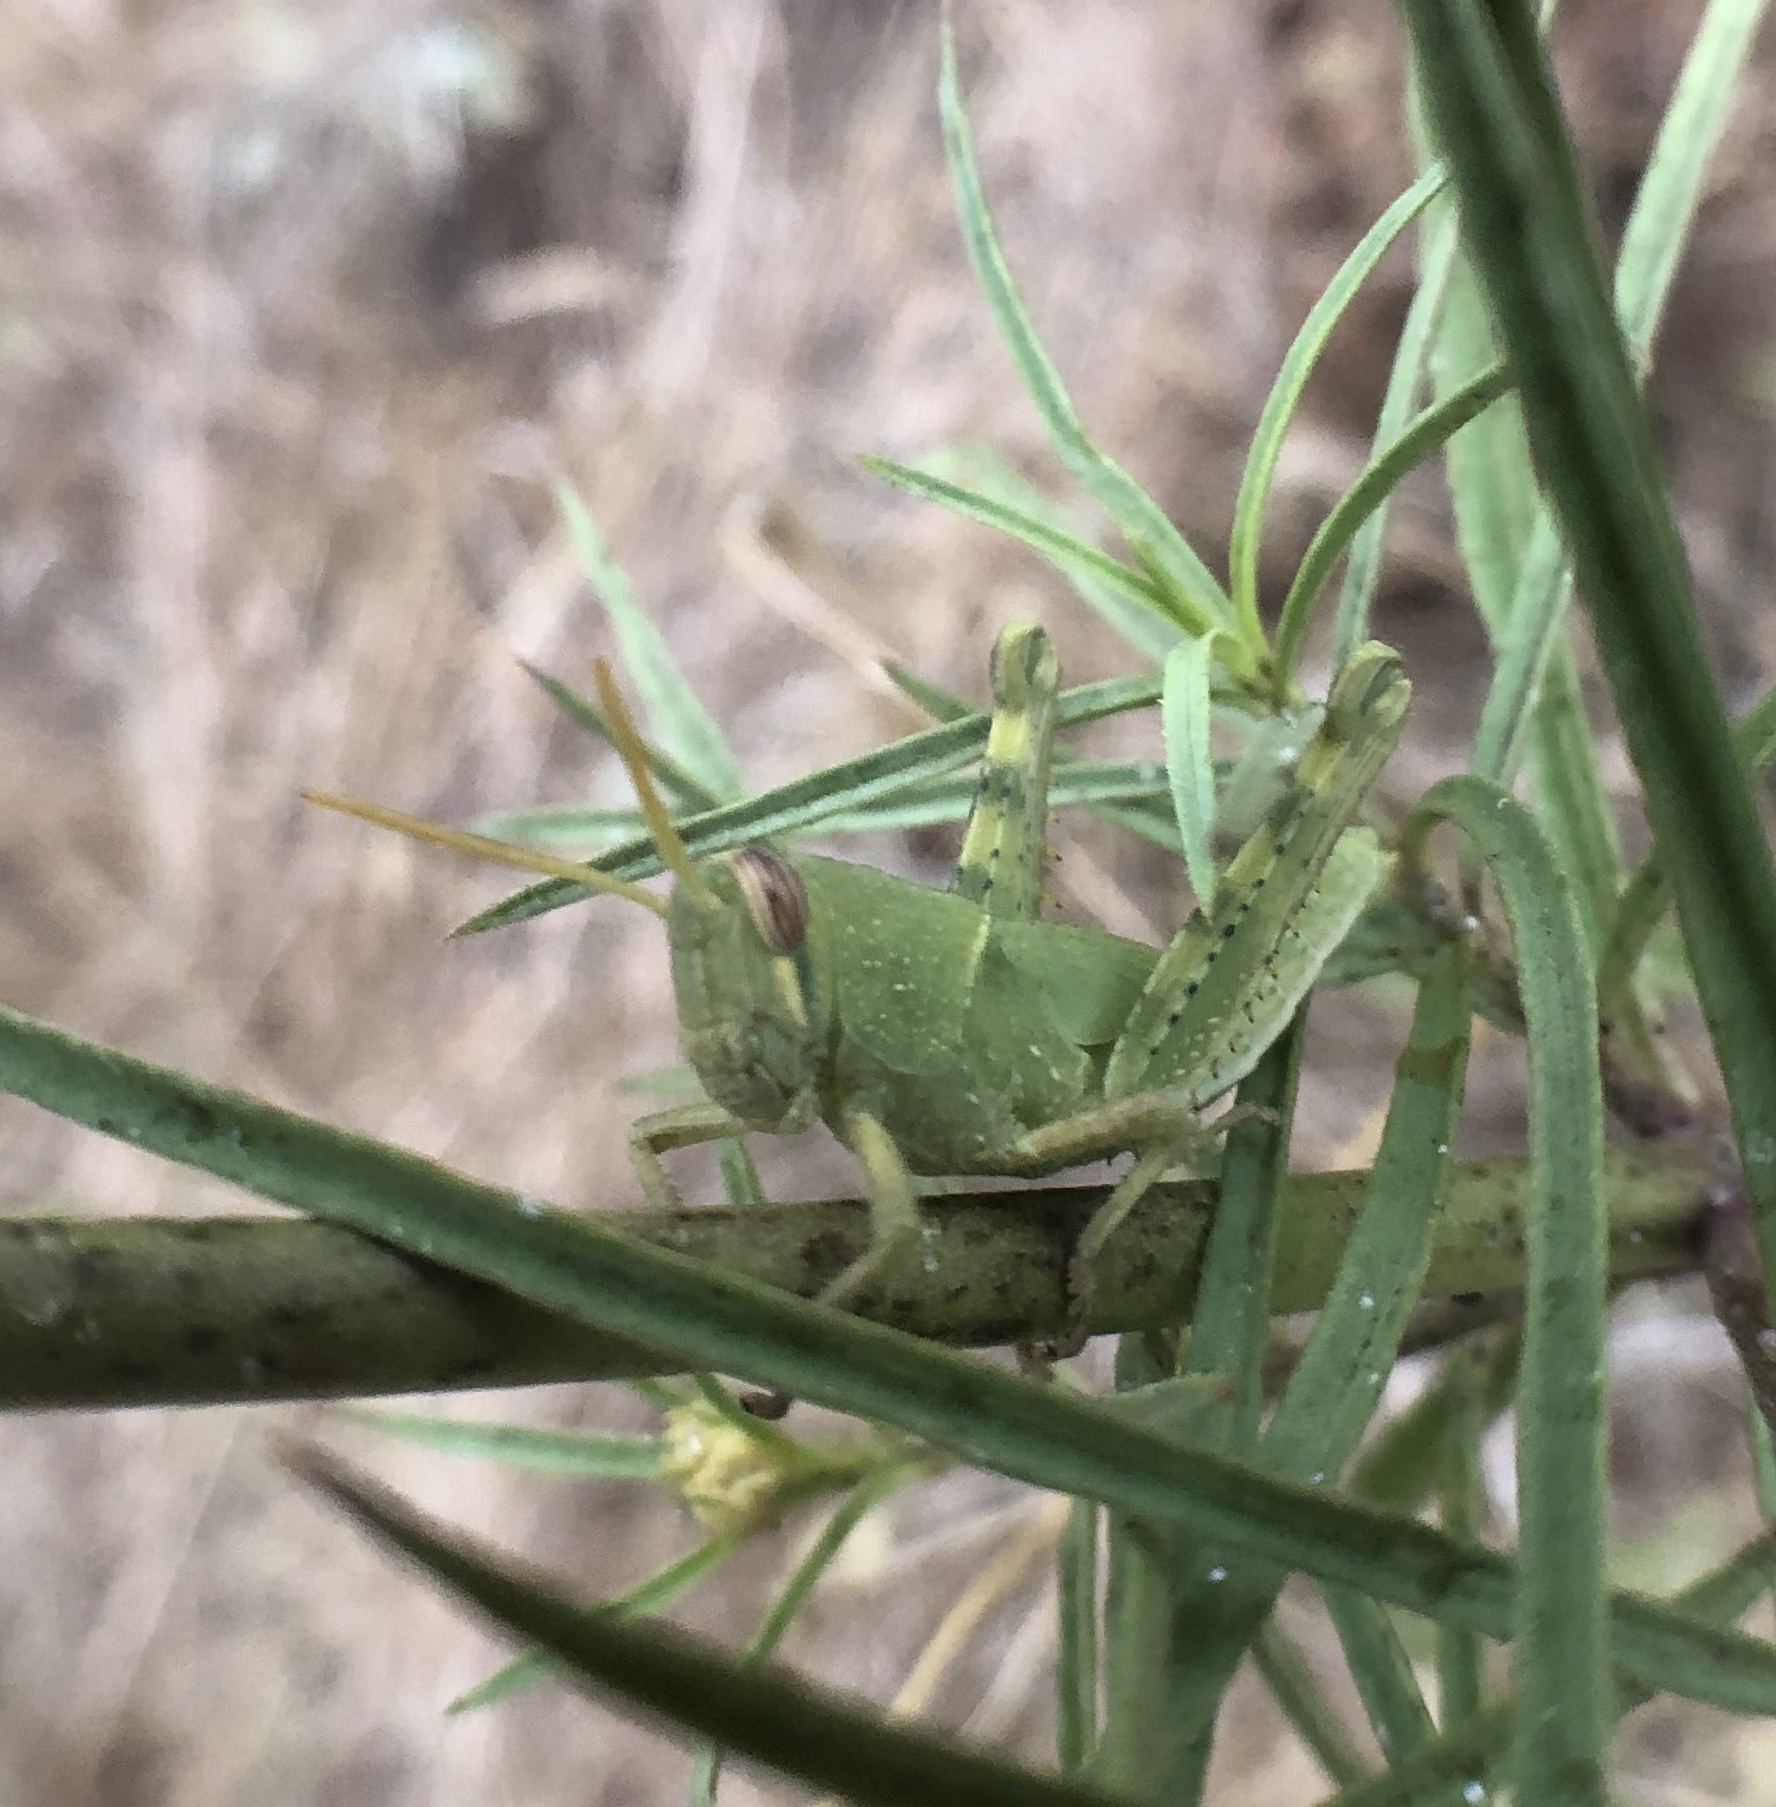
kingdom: Animalia
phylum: Arthropoda
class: Insecta
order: Orthoptera
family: Acrididae
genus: Schistocerca
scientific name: Schistocerca nitens
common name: Vagrant grasshopper
